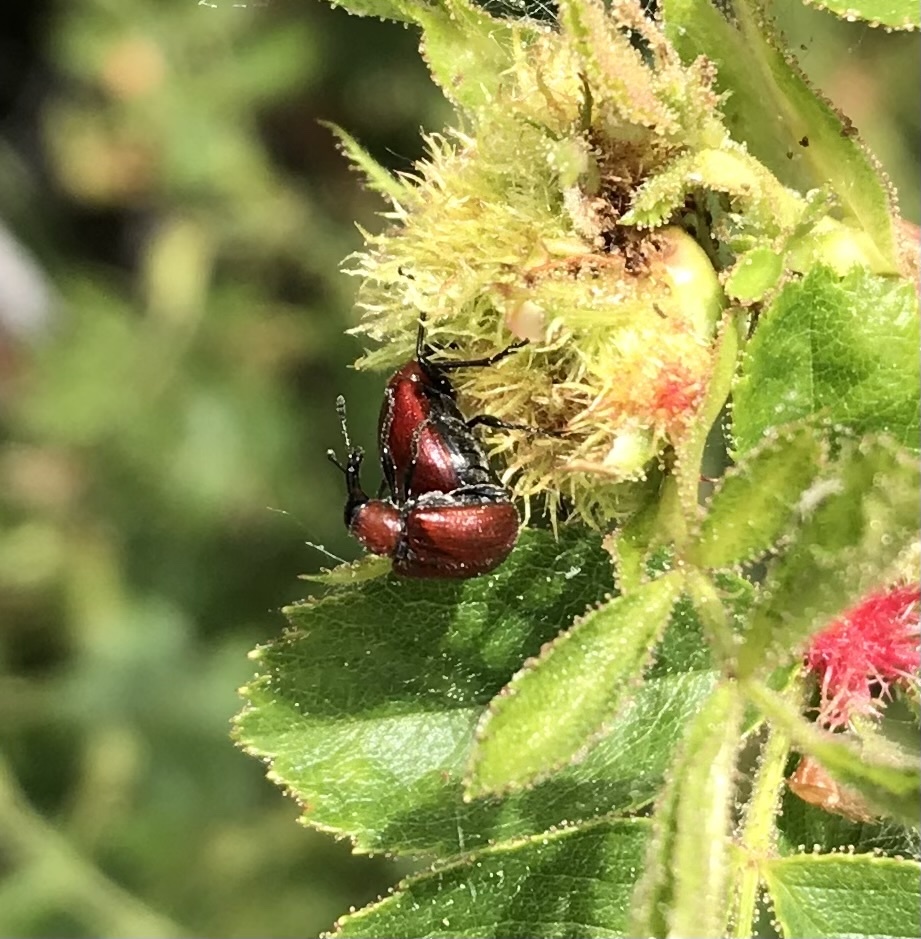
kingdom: Animalia
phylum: Arthropoda
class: Insecta
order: Coleoptera
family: Attelabidae
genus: Merhynchites
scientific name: Merhynchites bicolor
